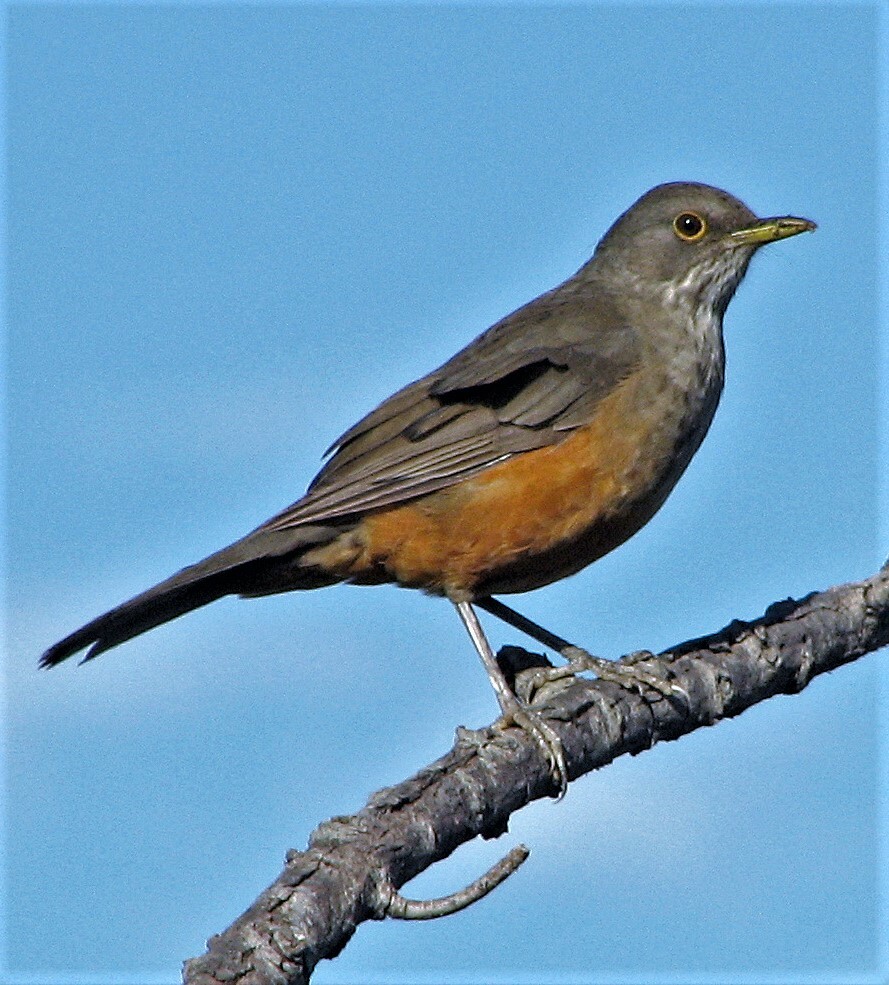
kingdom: Animalia
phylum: Chordata
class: Aves
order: Passeriformes
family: Turdidae
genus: Turdus
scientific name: Turdus rufiventris
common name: Rufous-bellied thrush
